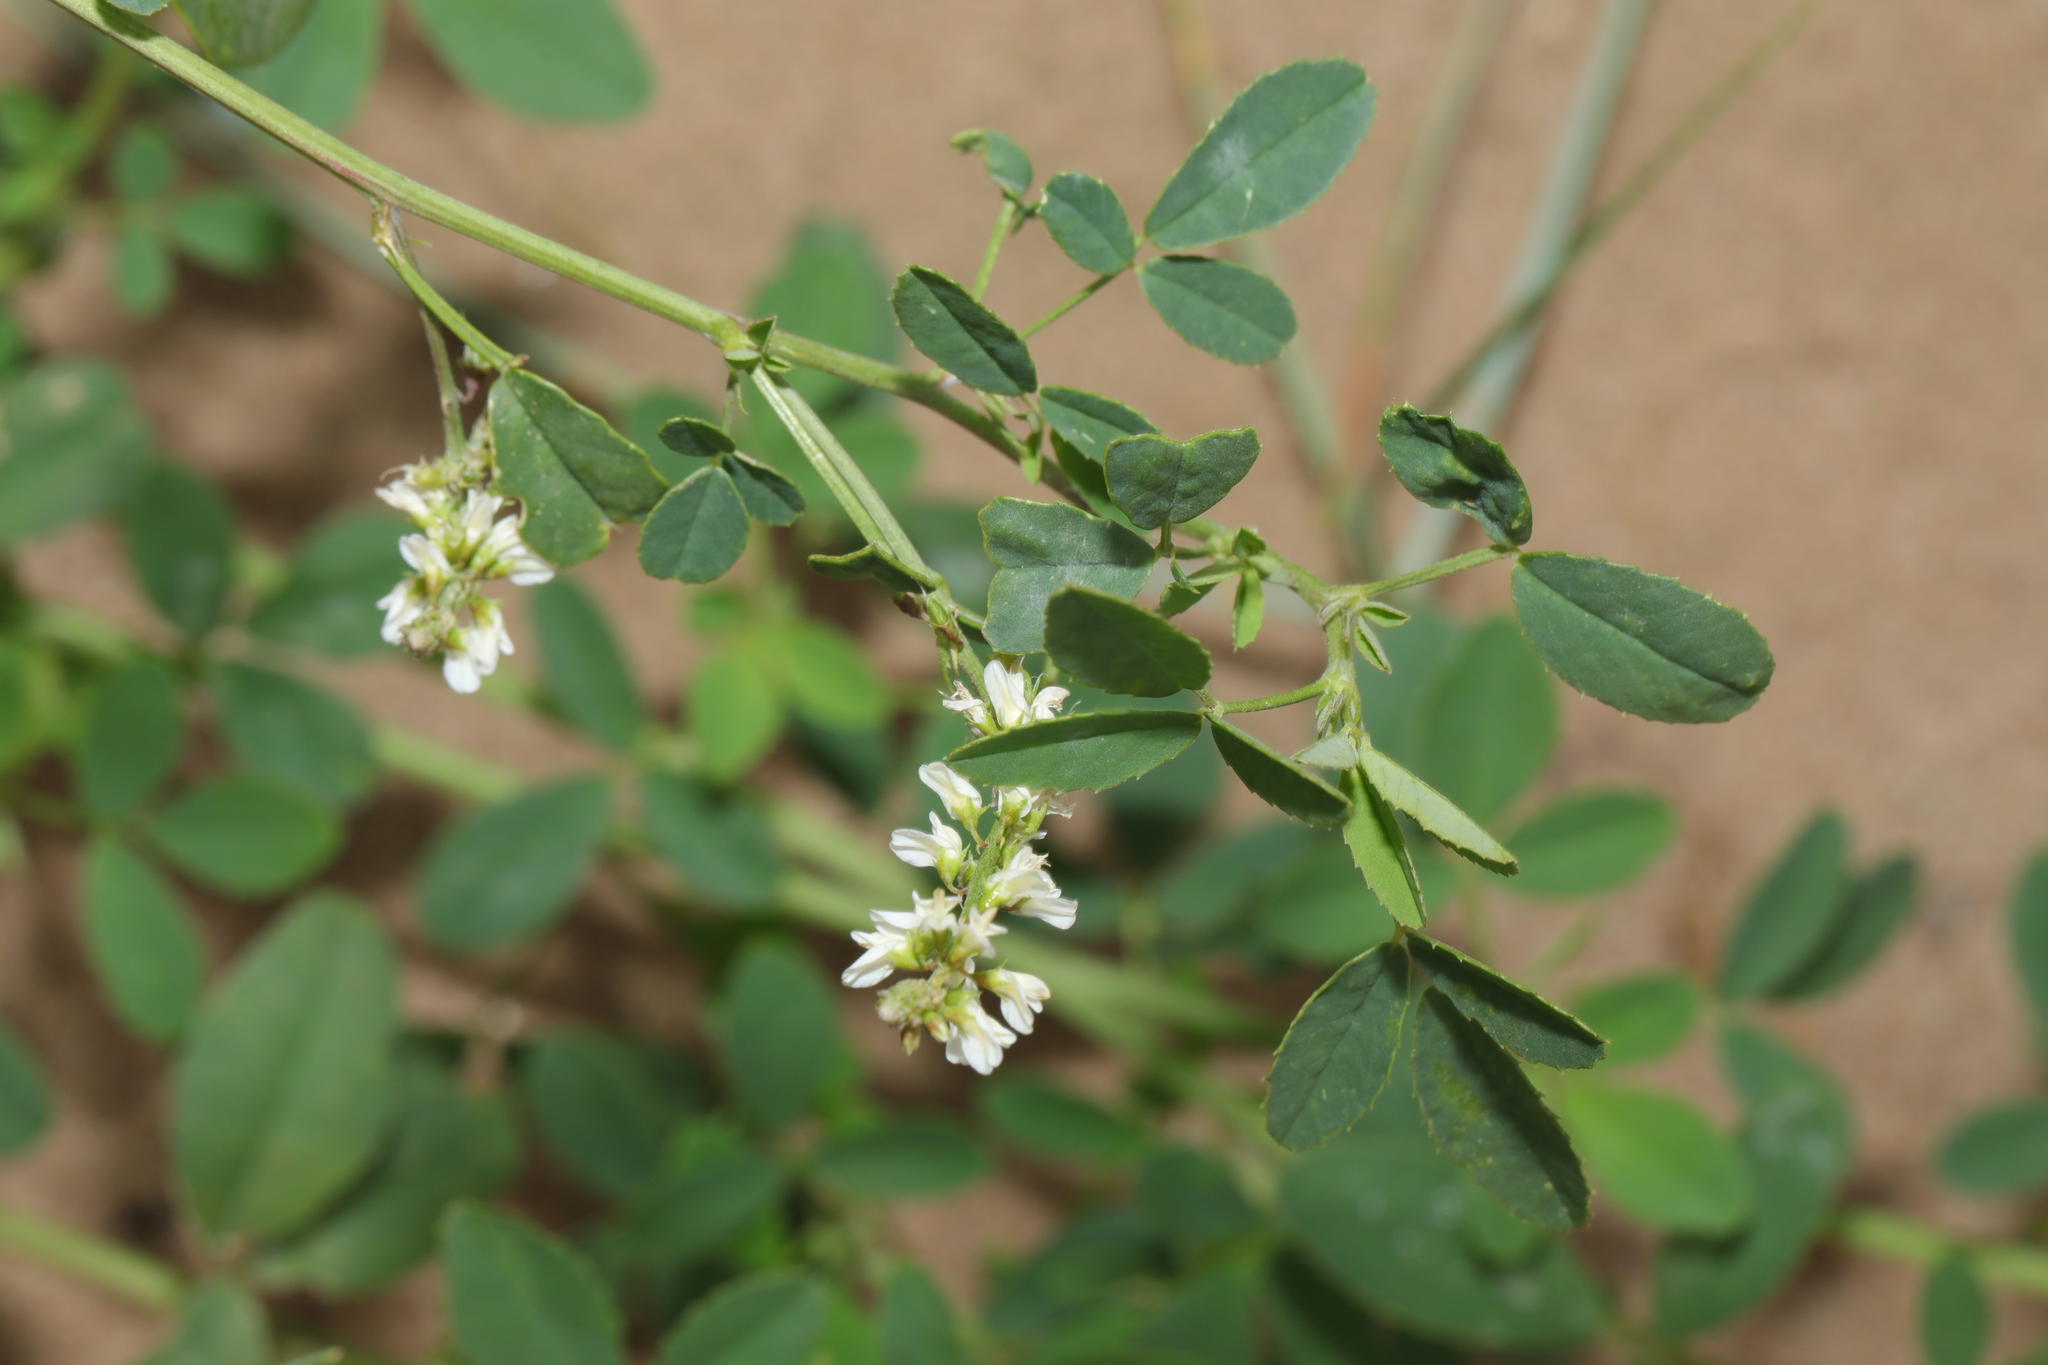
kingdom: Plantae
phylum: Tracheophyta
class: Magnoliopsida
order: Fabales
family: Fabaceae
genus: Melilotus
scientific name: Melilotus albus
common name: White melilot
